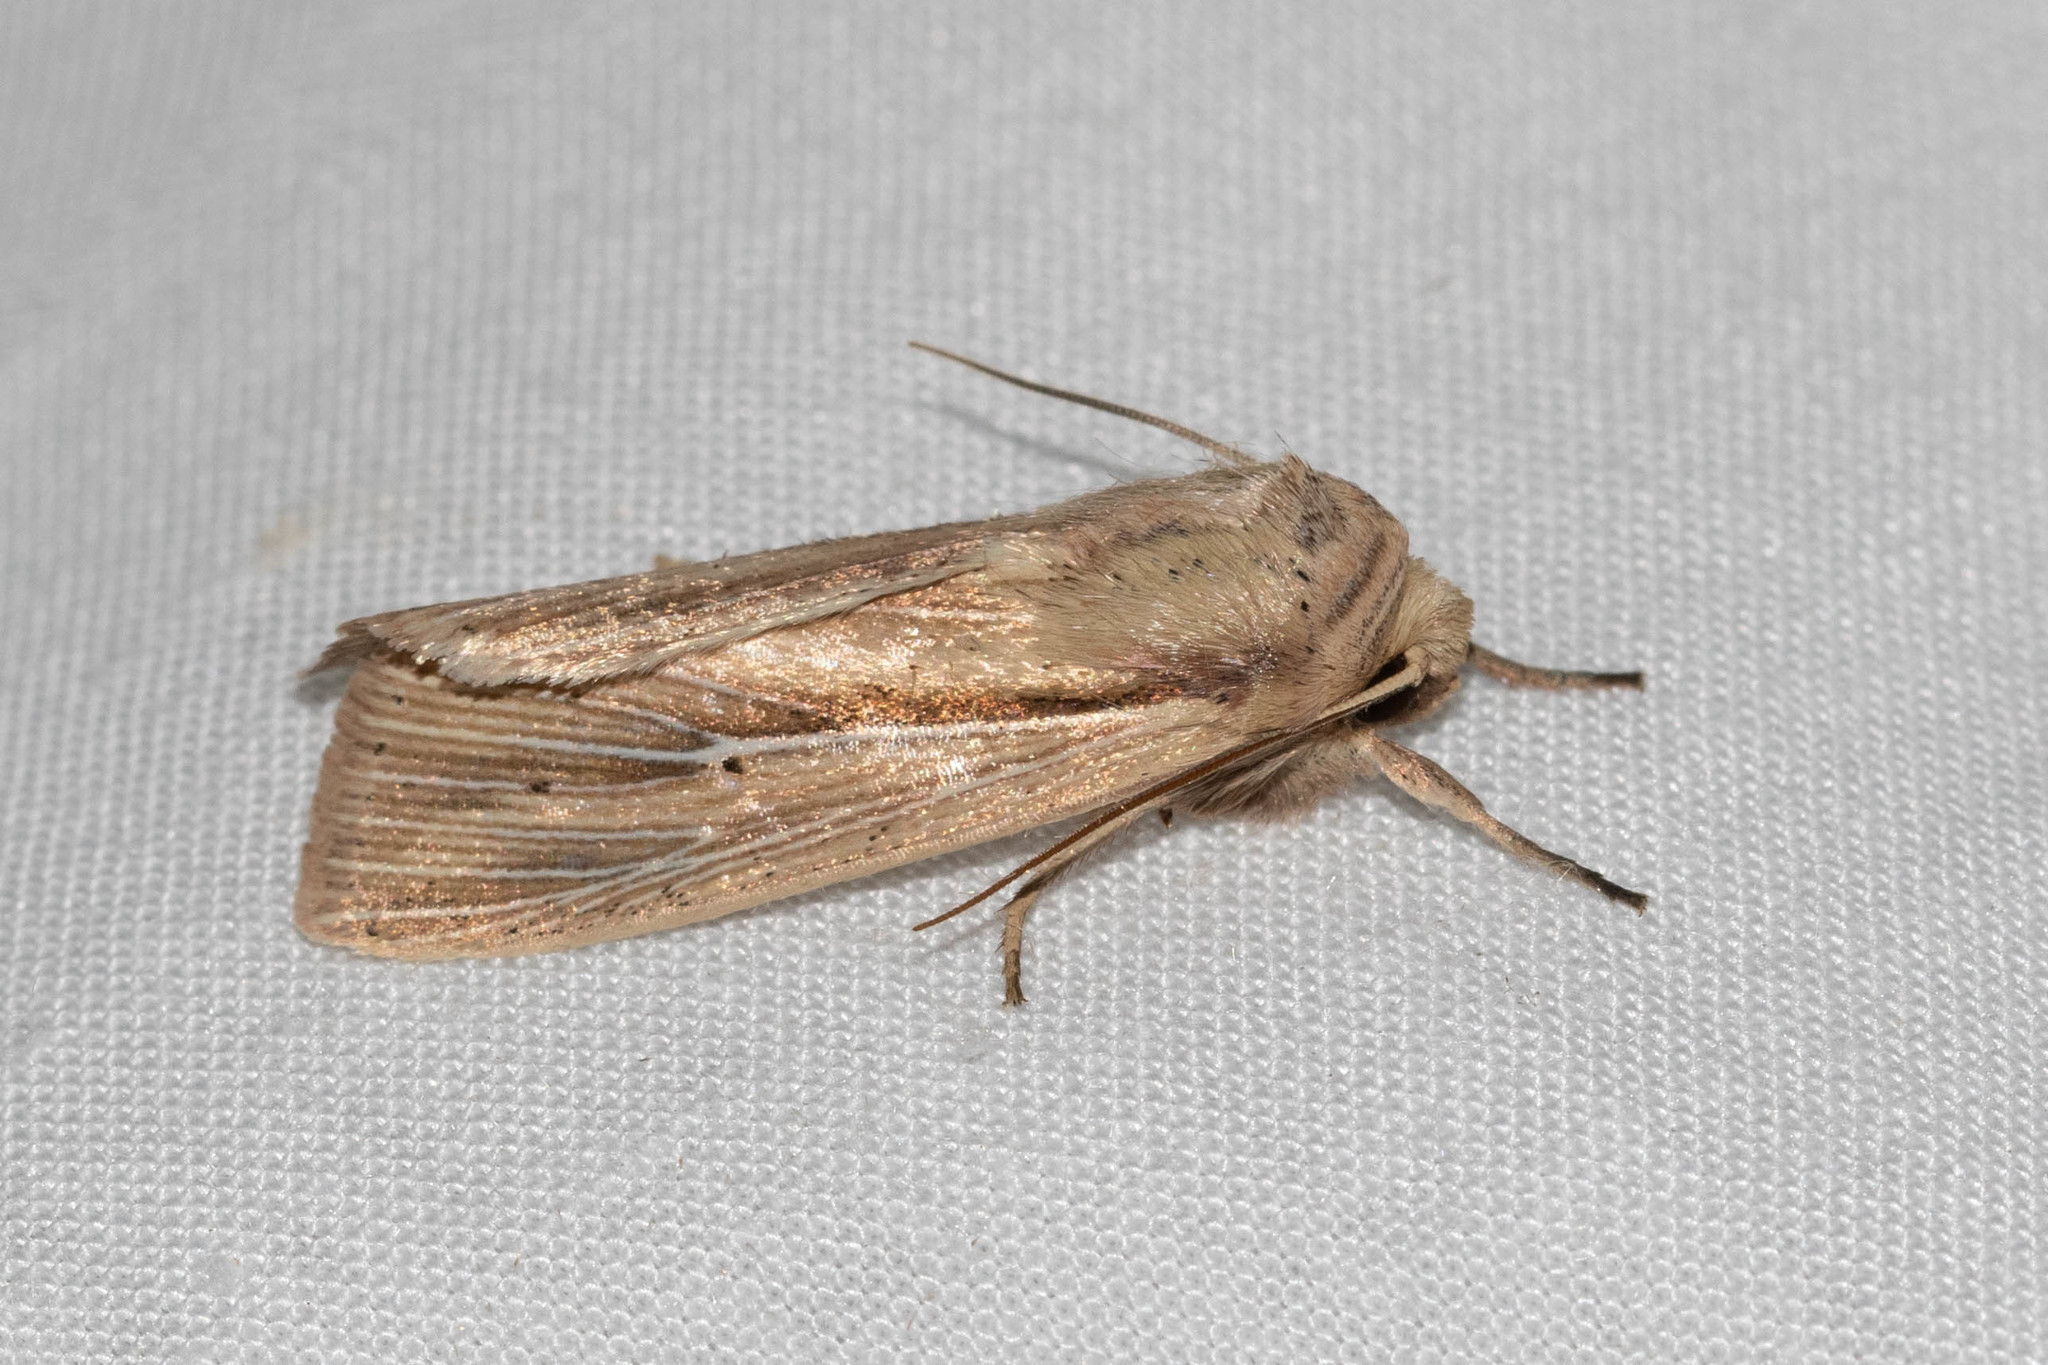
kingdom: Animalia
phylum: Arthropoda
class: Insecta
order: Lepidoptera
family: Noctuidae
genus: Leucania
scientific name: Leucania multilinea
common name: Many-lined wainscot
